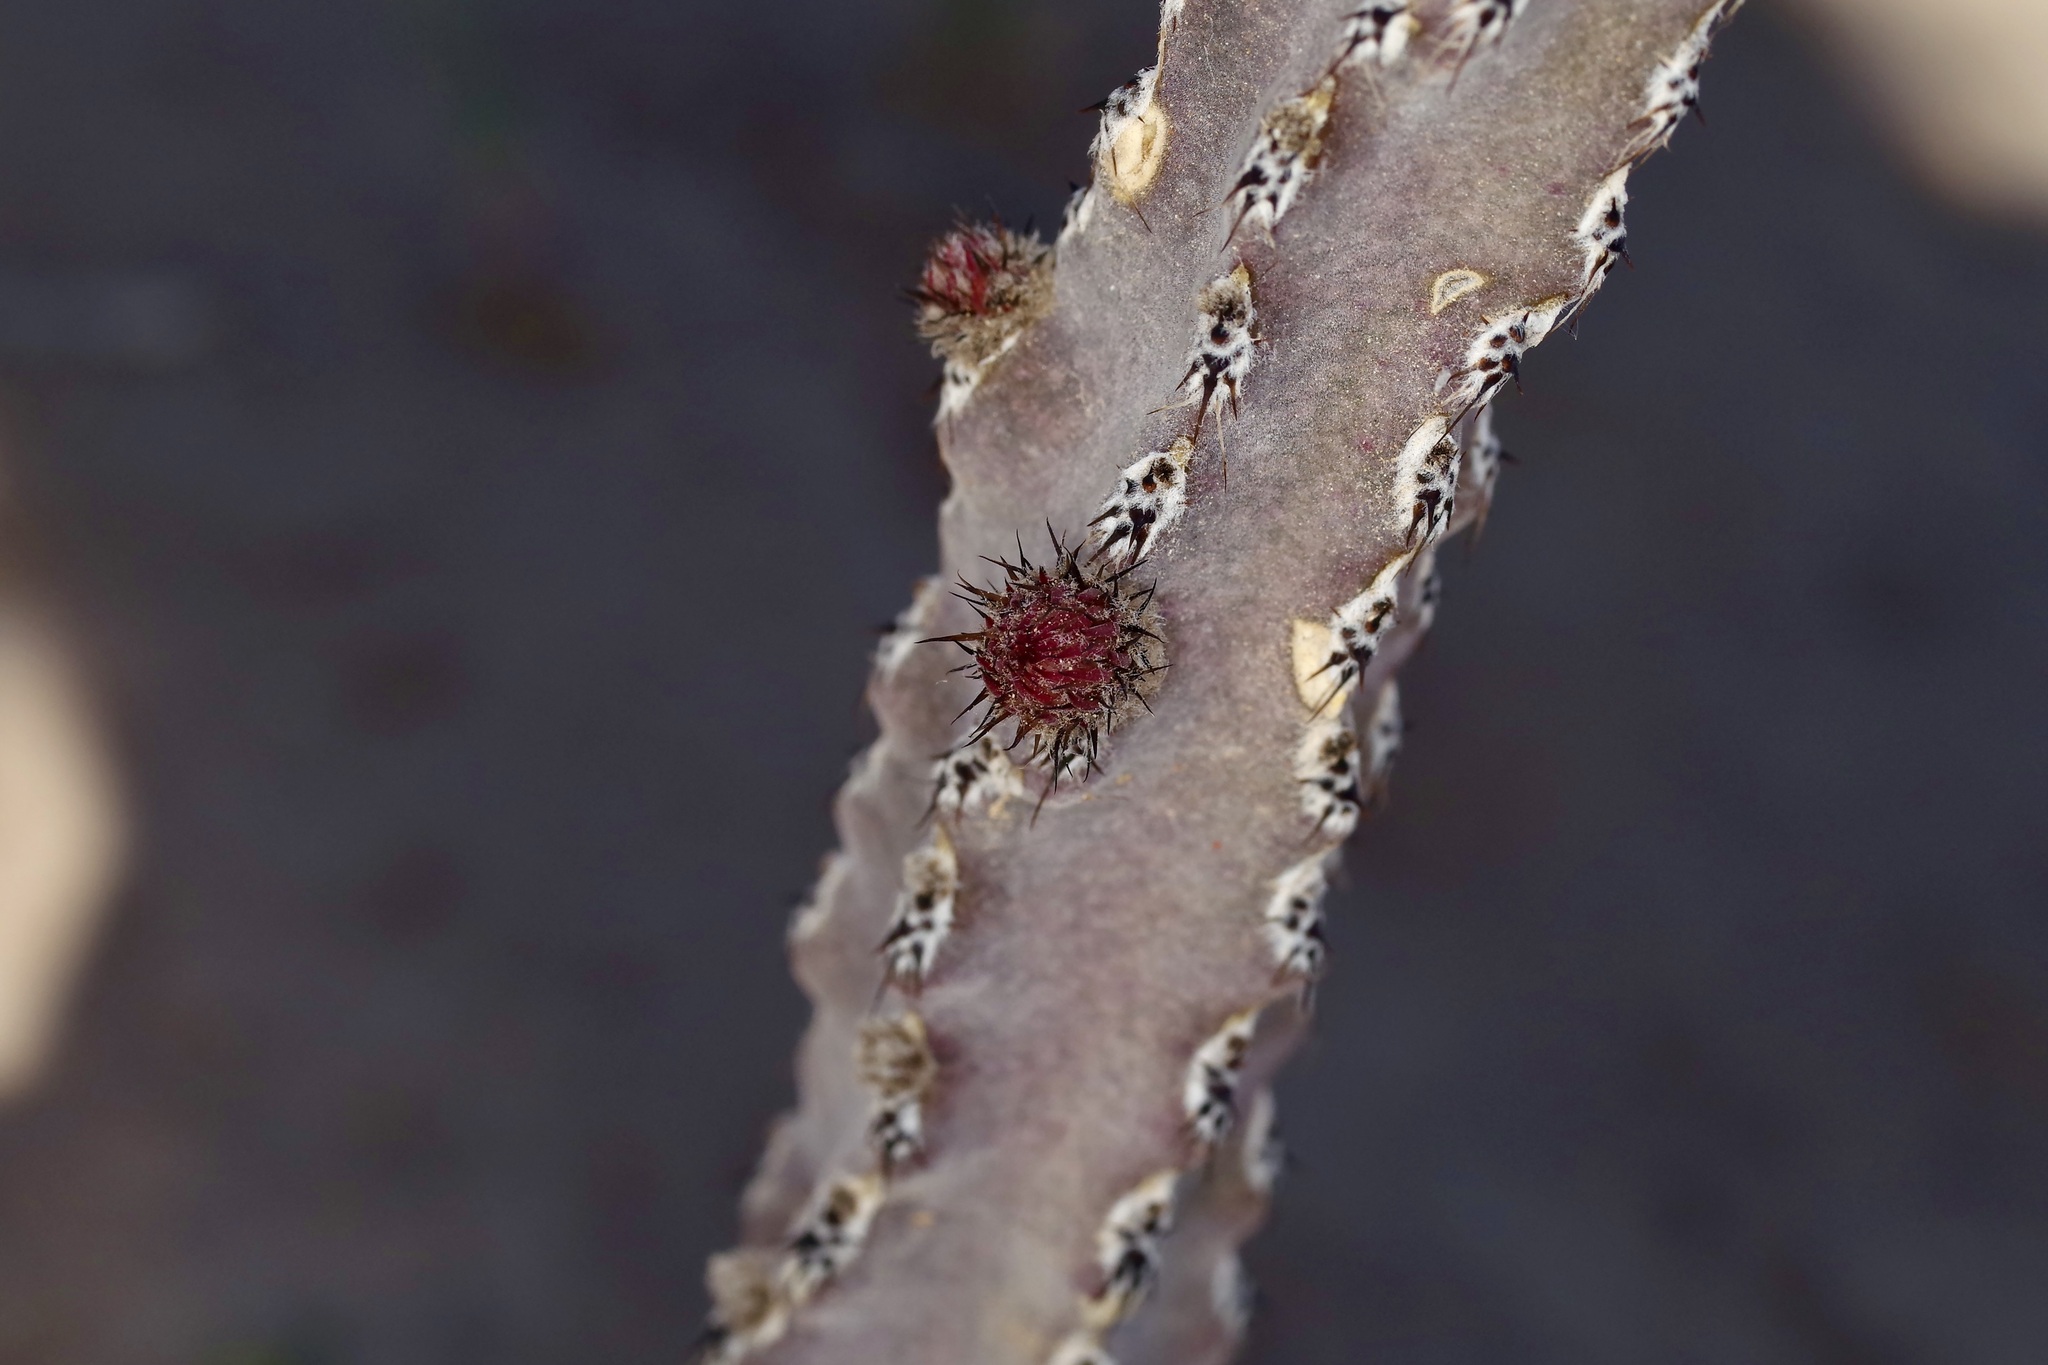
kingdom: Plantae
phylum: Tracheophyta
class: Magnoliopsida
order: Caryophyllales
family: Cactaceae
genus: Peniocereus
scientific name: Peniocereus greggii
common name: Desert night-blooming cereus
